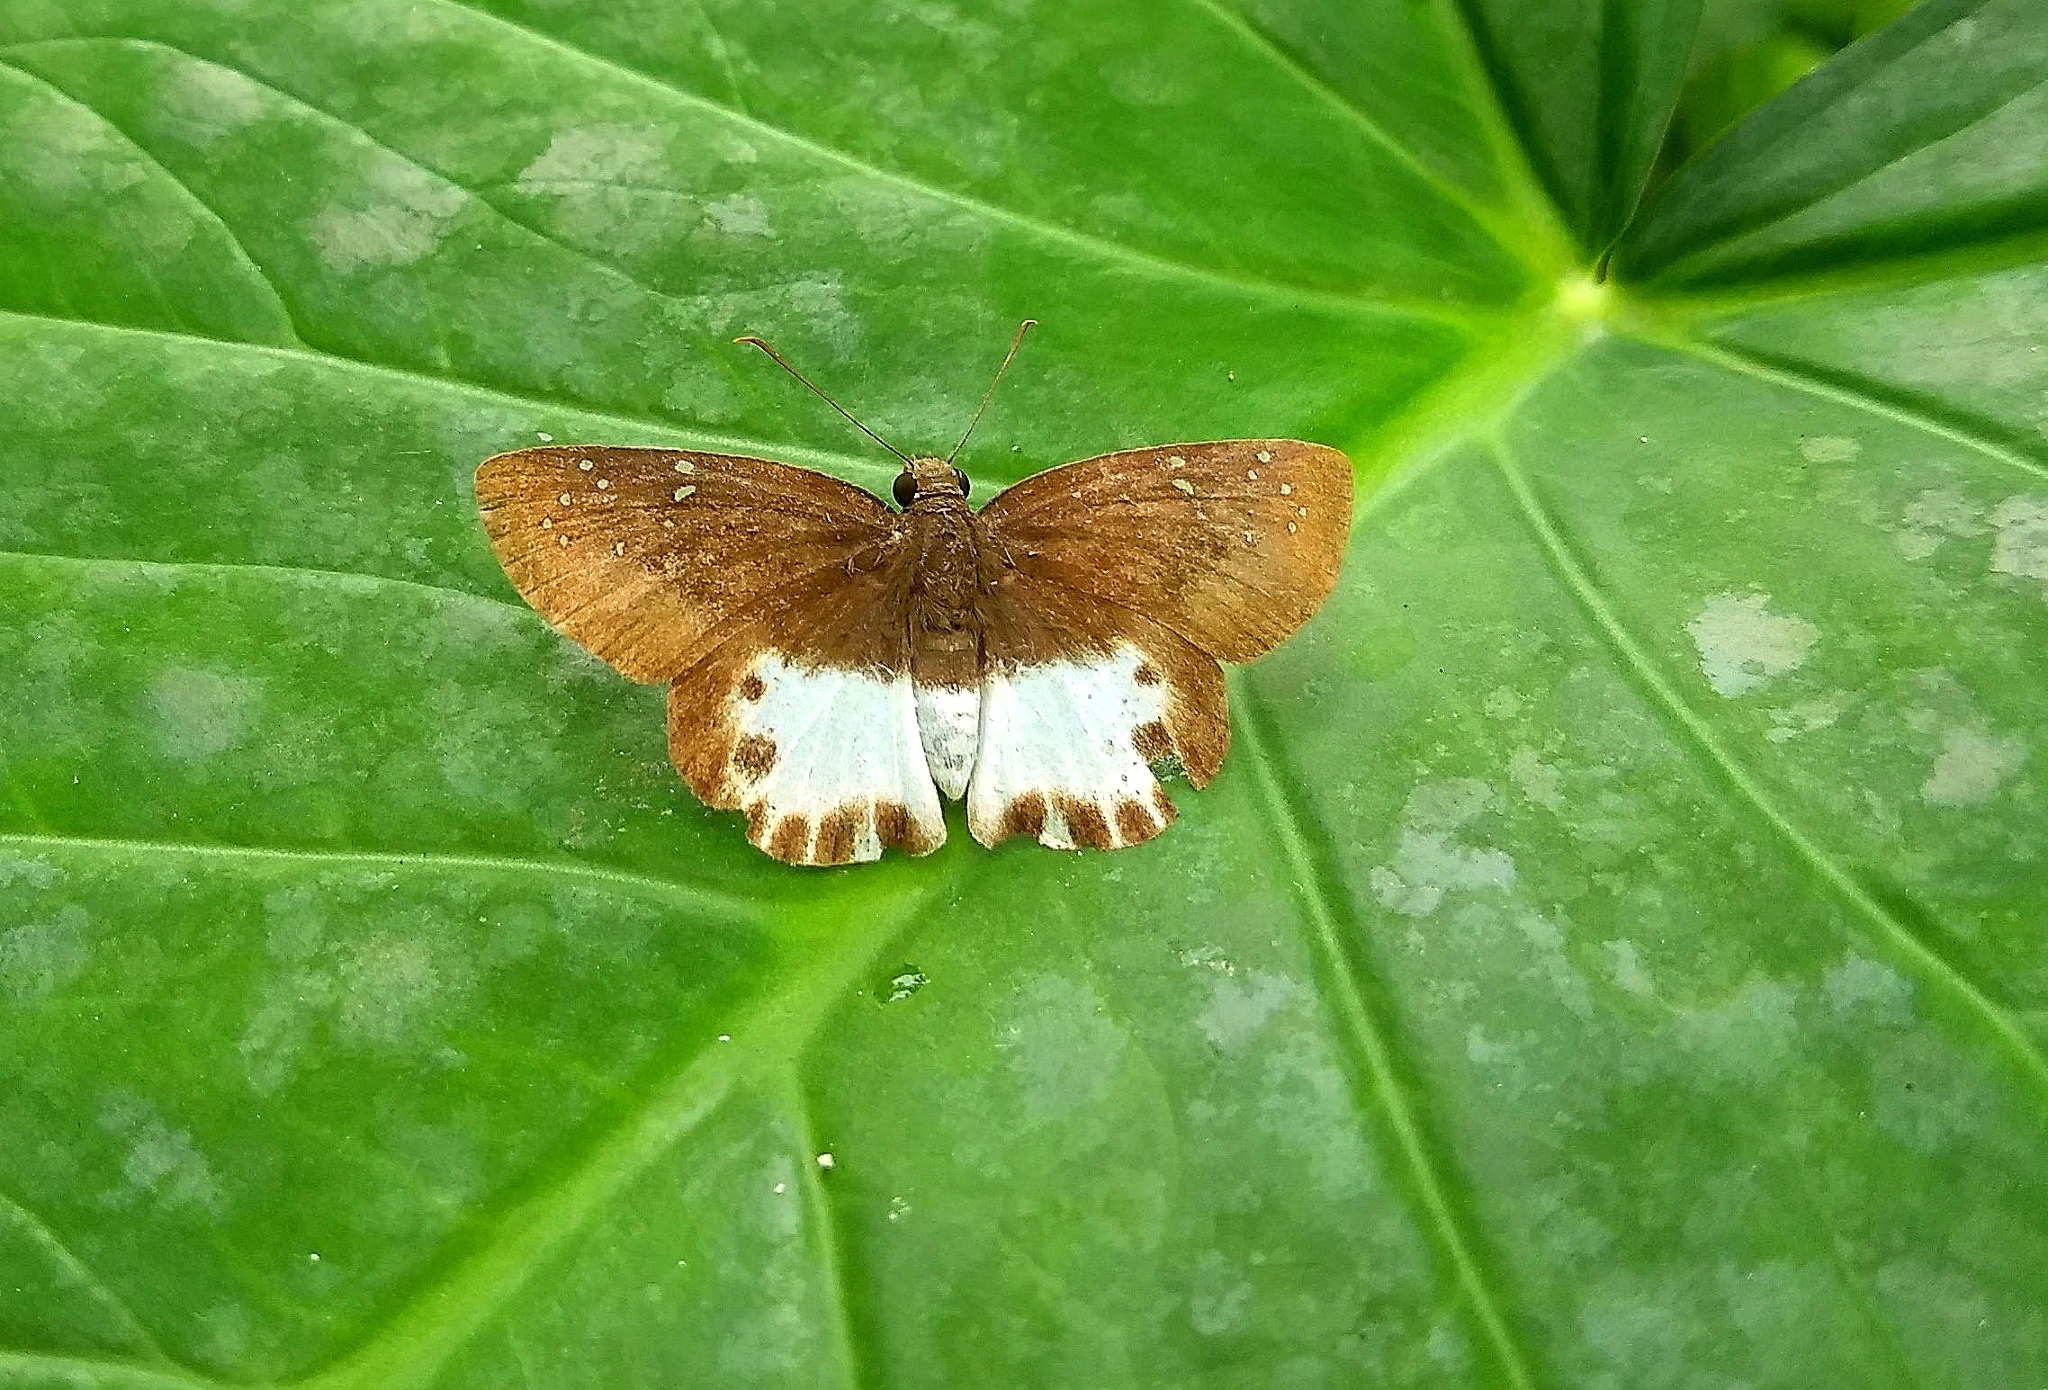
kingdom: Animalia
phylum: Arthropoda
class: Insecta
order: Lepidoptera
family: Hesperiidae
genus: Tagiades
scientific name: Tagiades litigiosa
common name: Water snow flat
